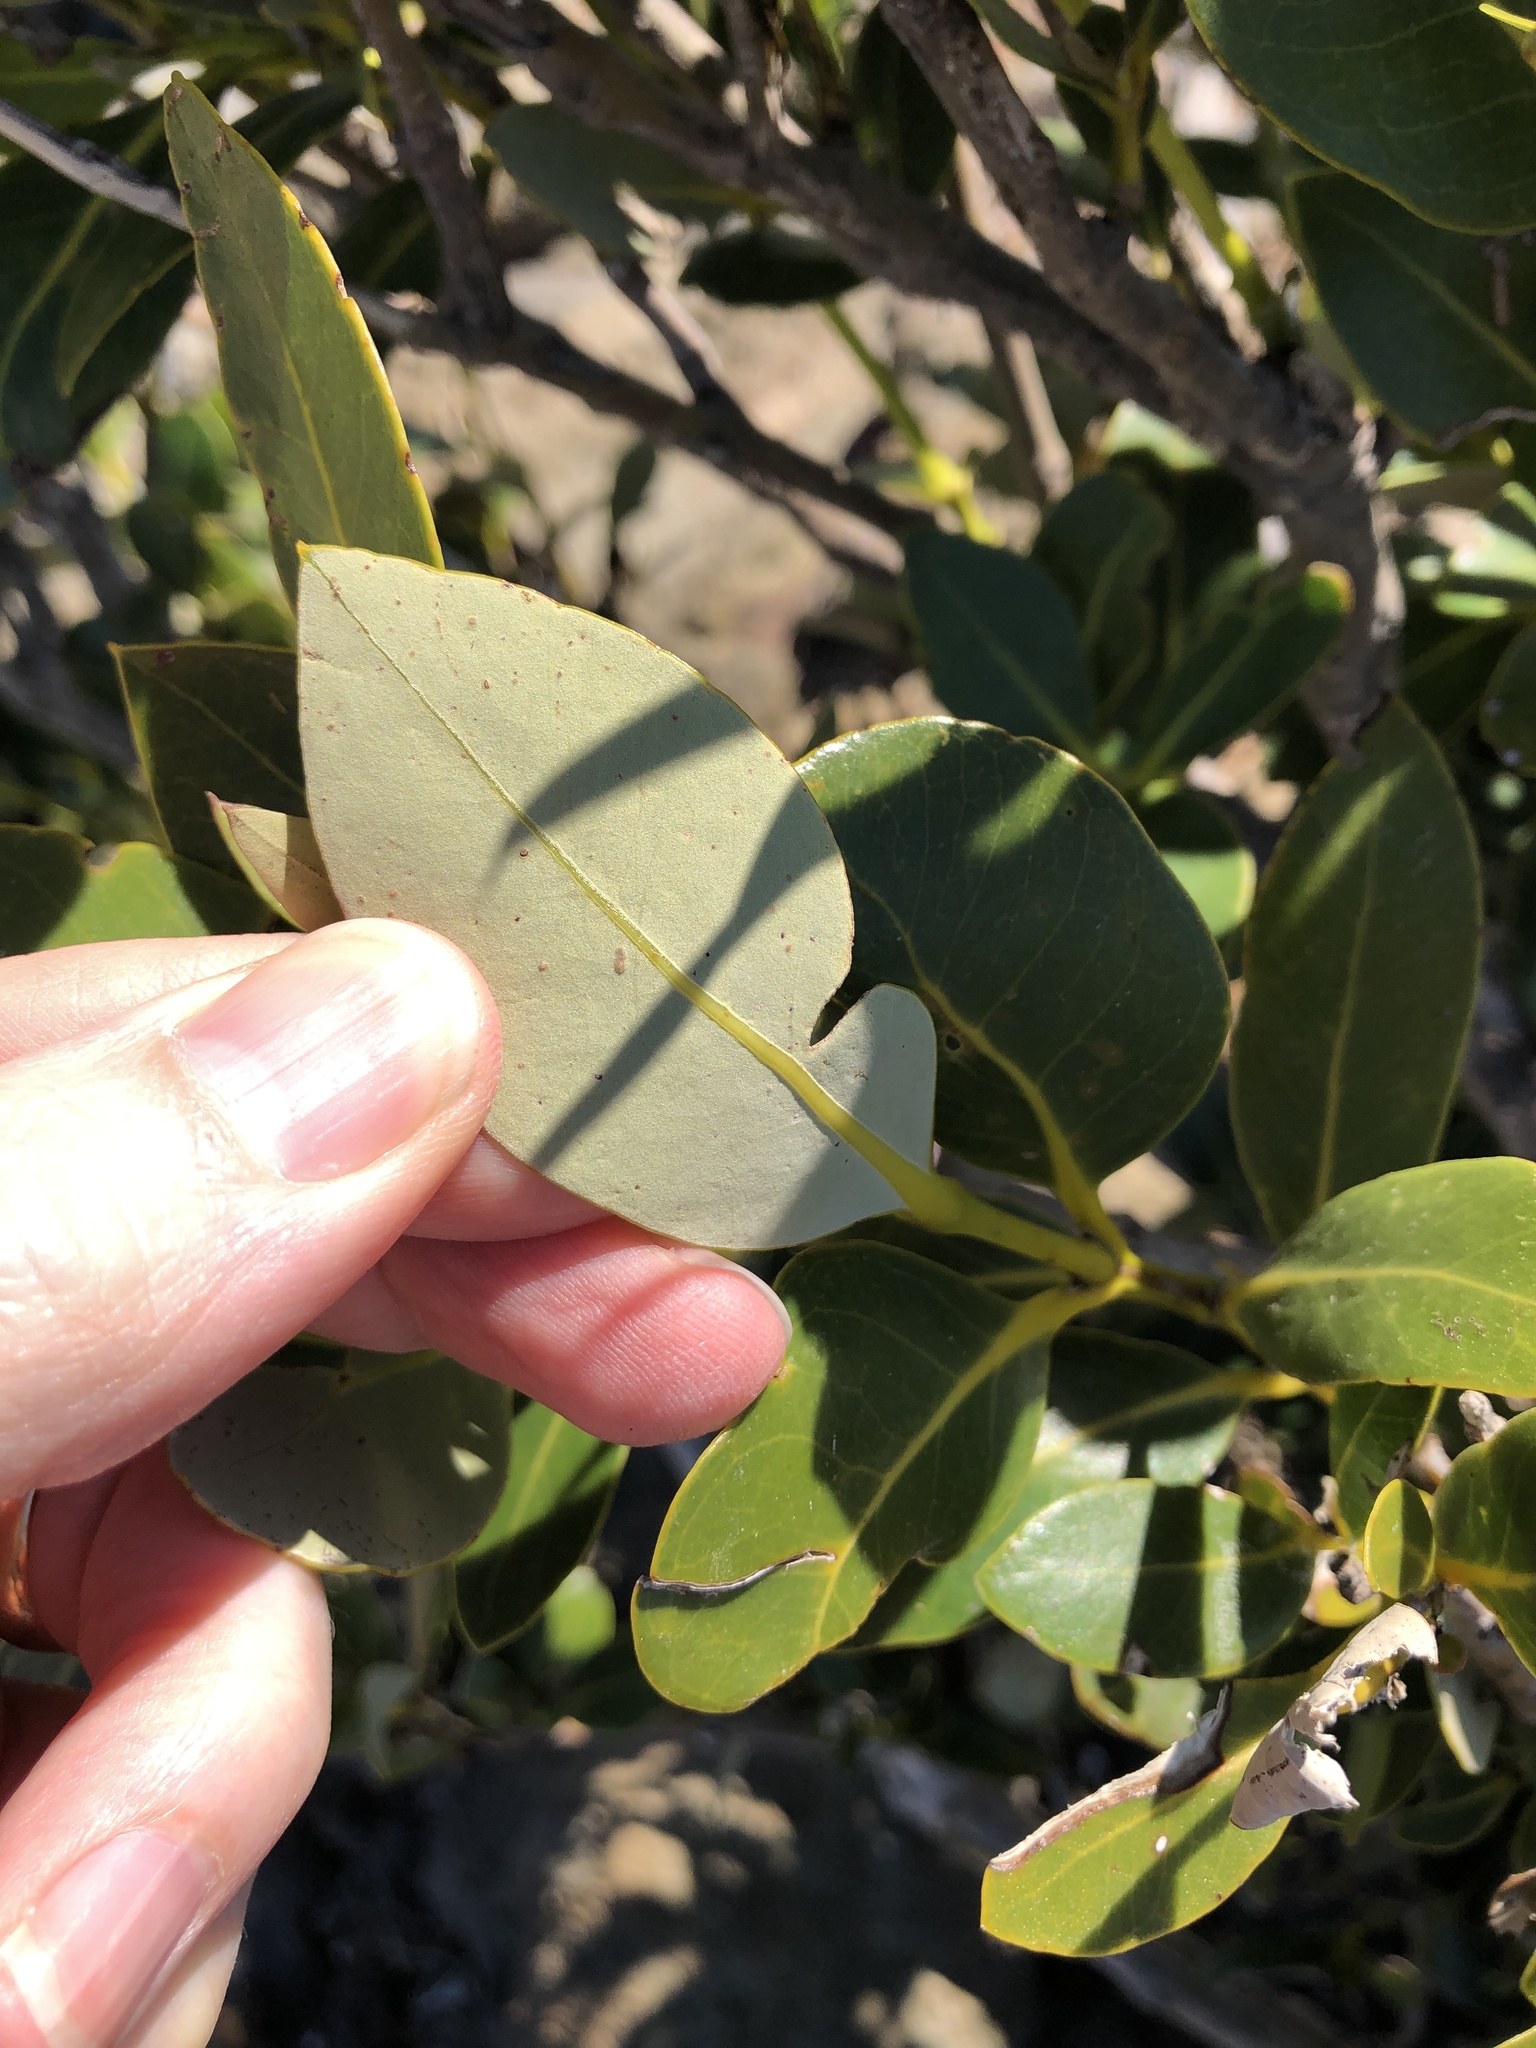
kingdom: Plantae
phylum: Tracheophyta
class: Magnoliopsida
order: Lamiales
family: Acanthaceae
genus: Avicennia
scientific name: Avicennia marina
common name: Gray mangrove
